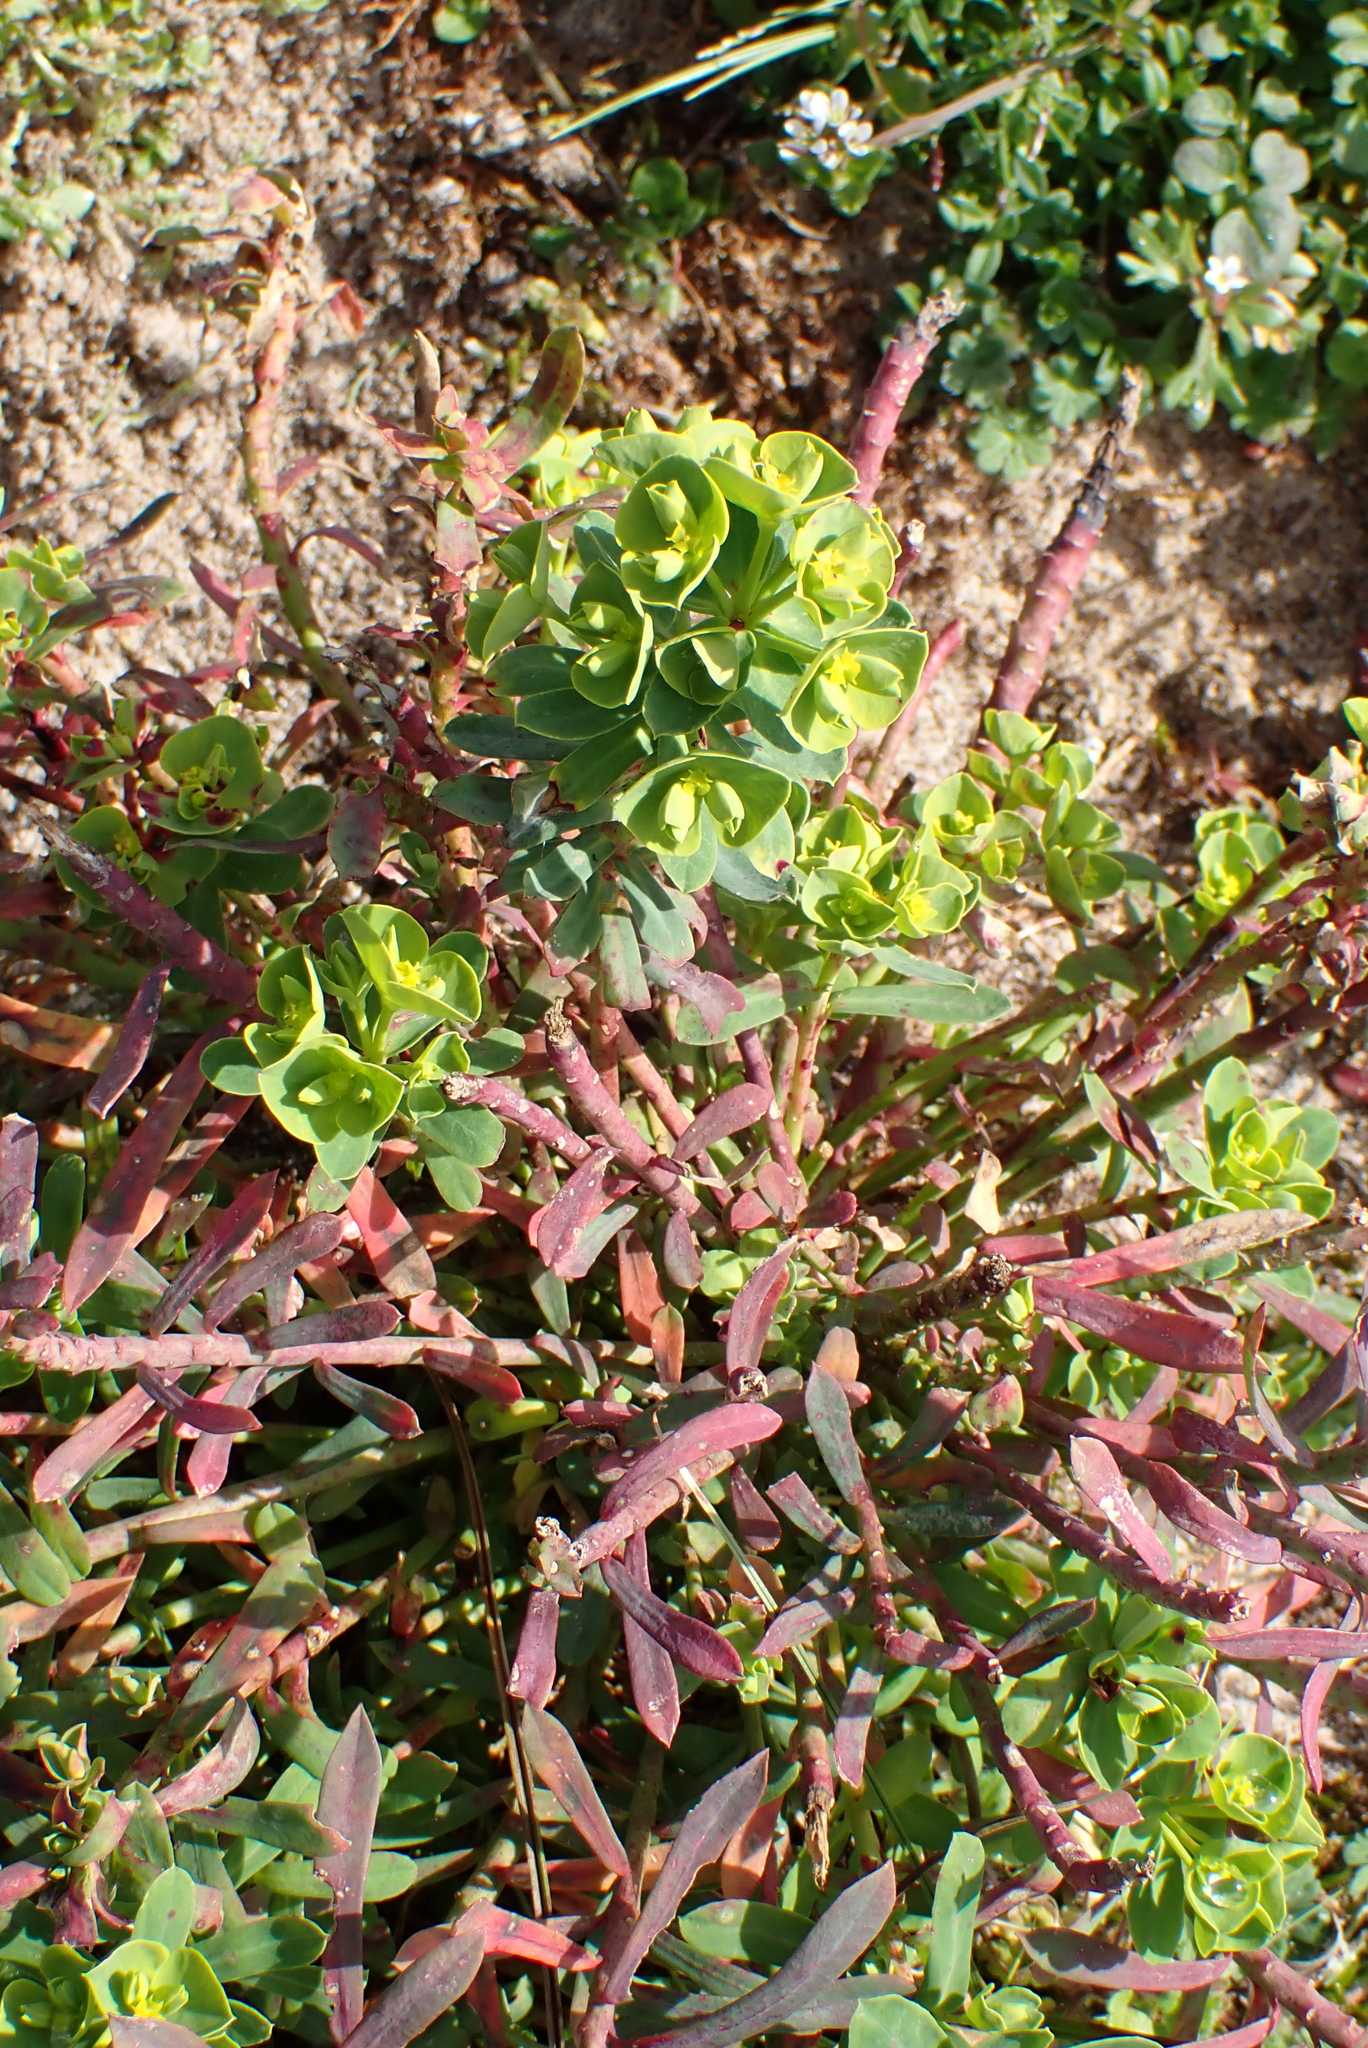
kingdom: Plantae
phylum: Tracheophyta
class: Magnoliopsida
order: Malpighiales
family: Euphorbiaceae
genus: Euphorbia
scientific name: Euphorbia portlandica
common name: Portland spurge
